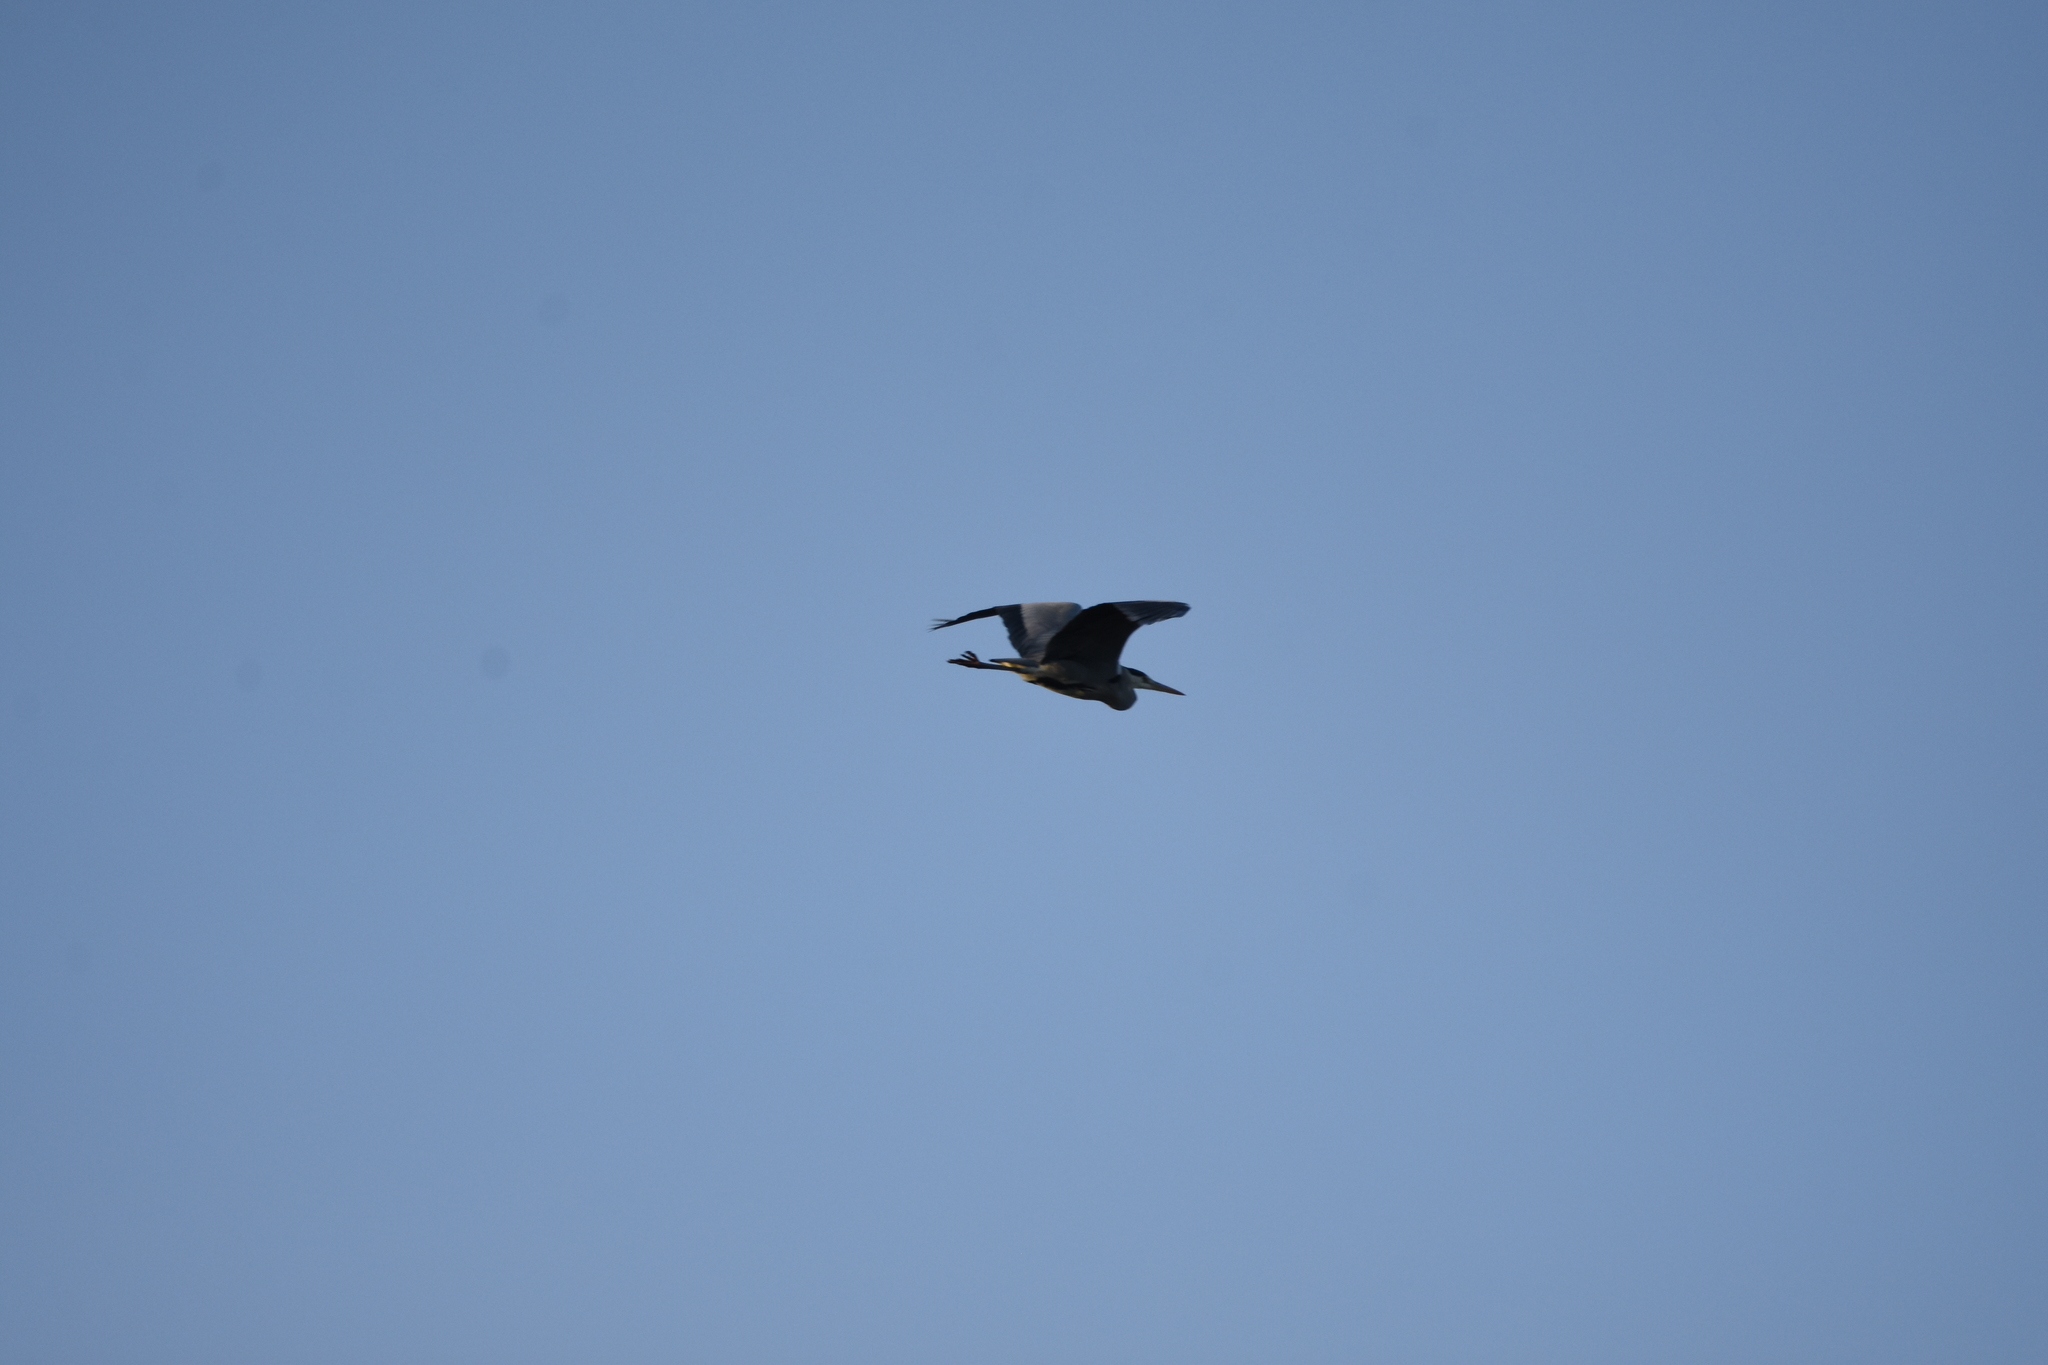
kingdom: Animalia
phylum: Chordata
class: Aves
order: Pelecaniformes
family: Ardeidae
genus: Ardea
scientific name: Ardea cinerea
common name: Grey heron
